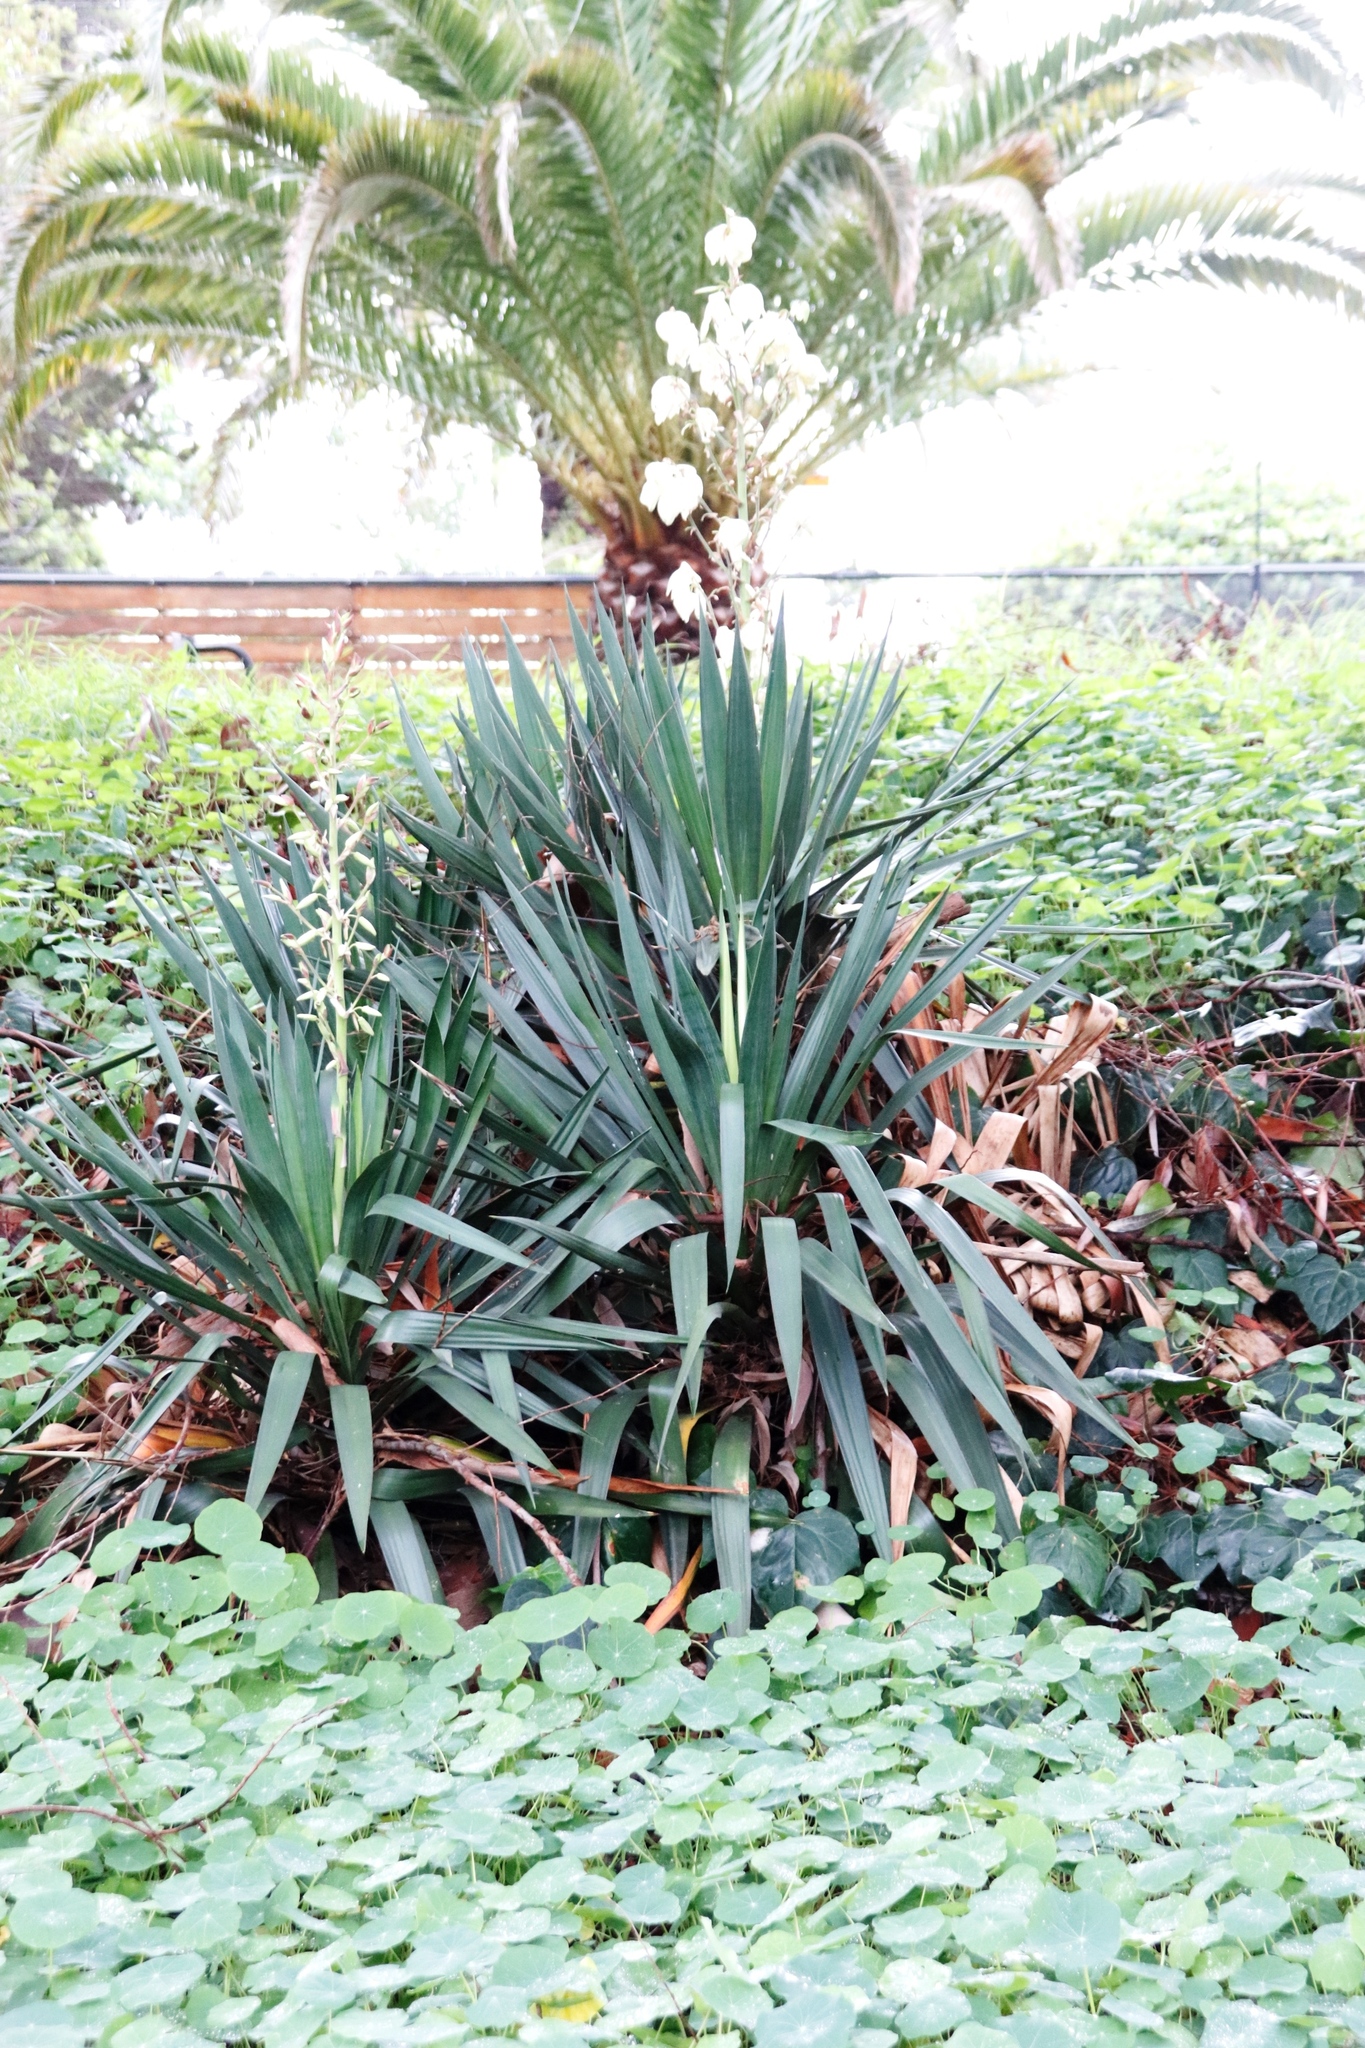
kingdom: Plantae
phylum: Tracheophyta
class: Liliopsida
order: Asparagales
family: Asparagaceae
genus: Yucca
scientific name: Yucca gloriosa
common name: Spanish-dagger
